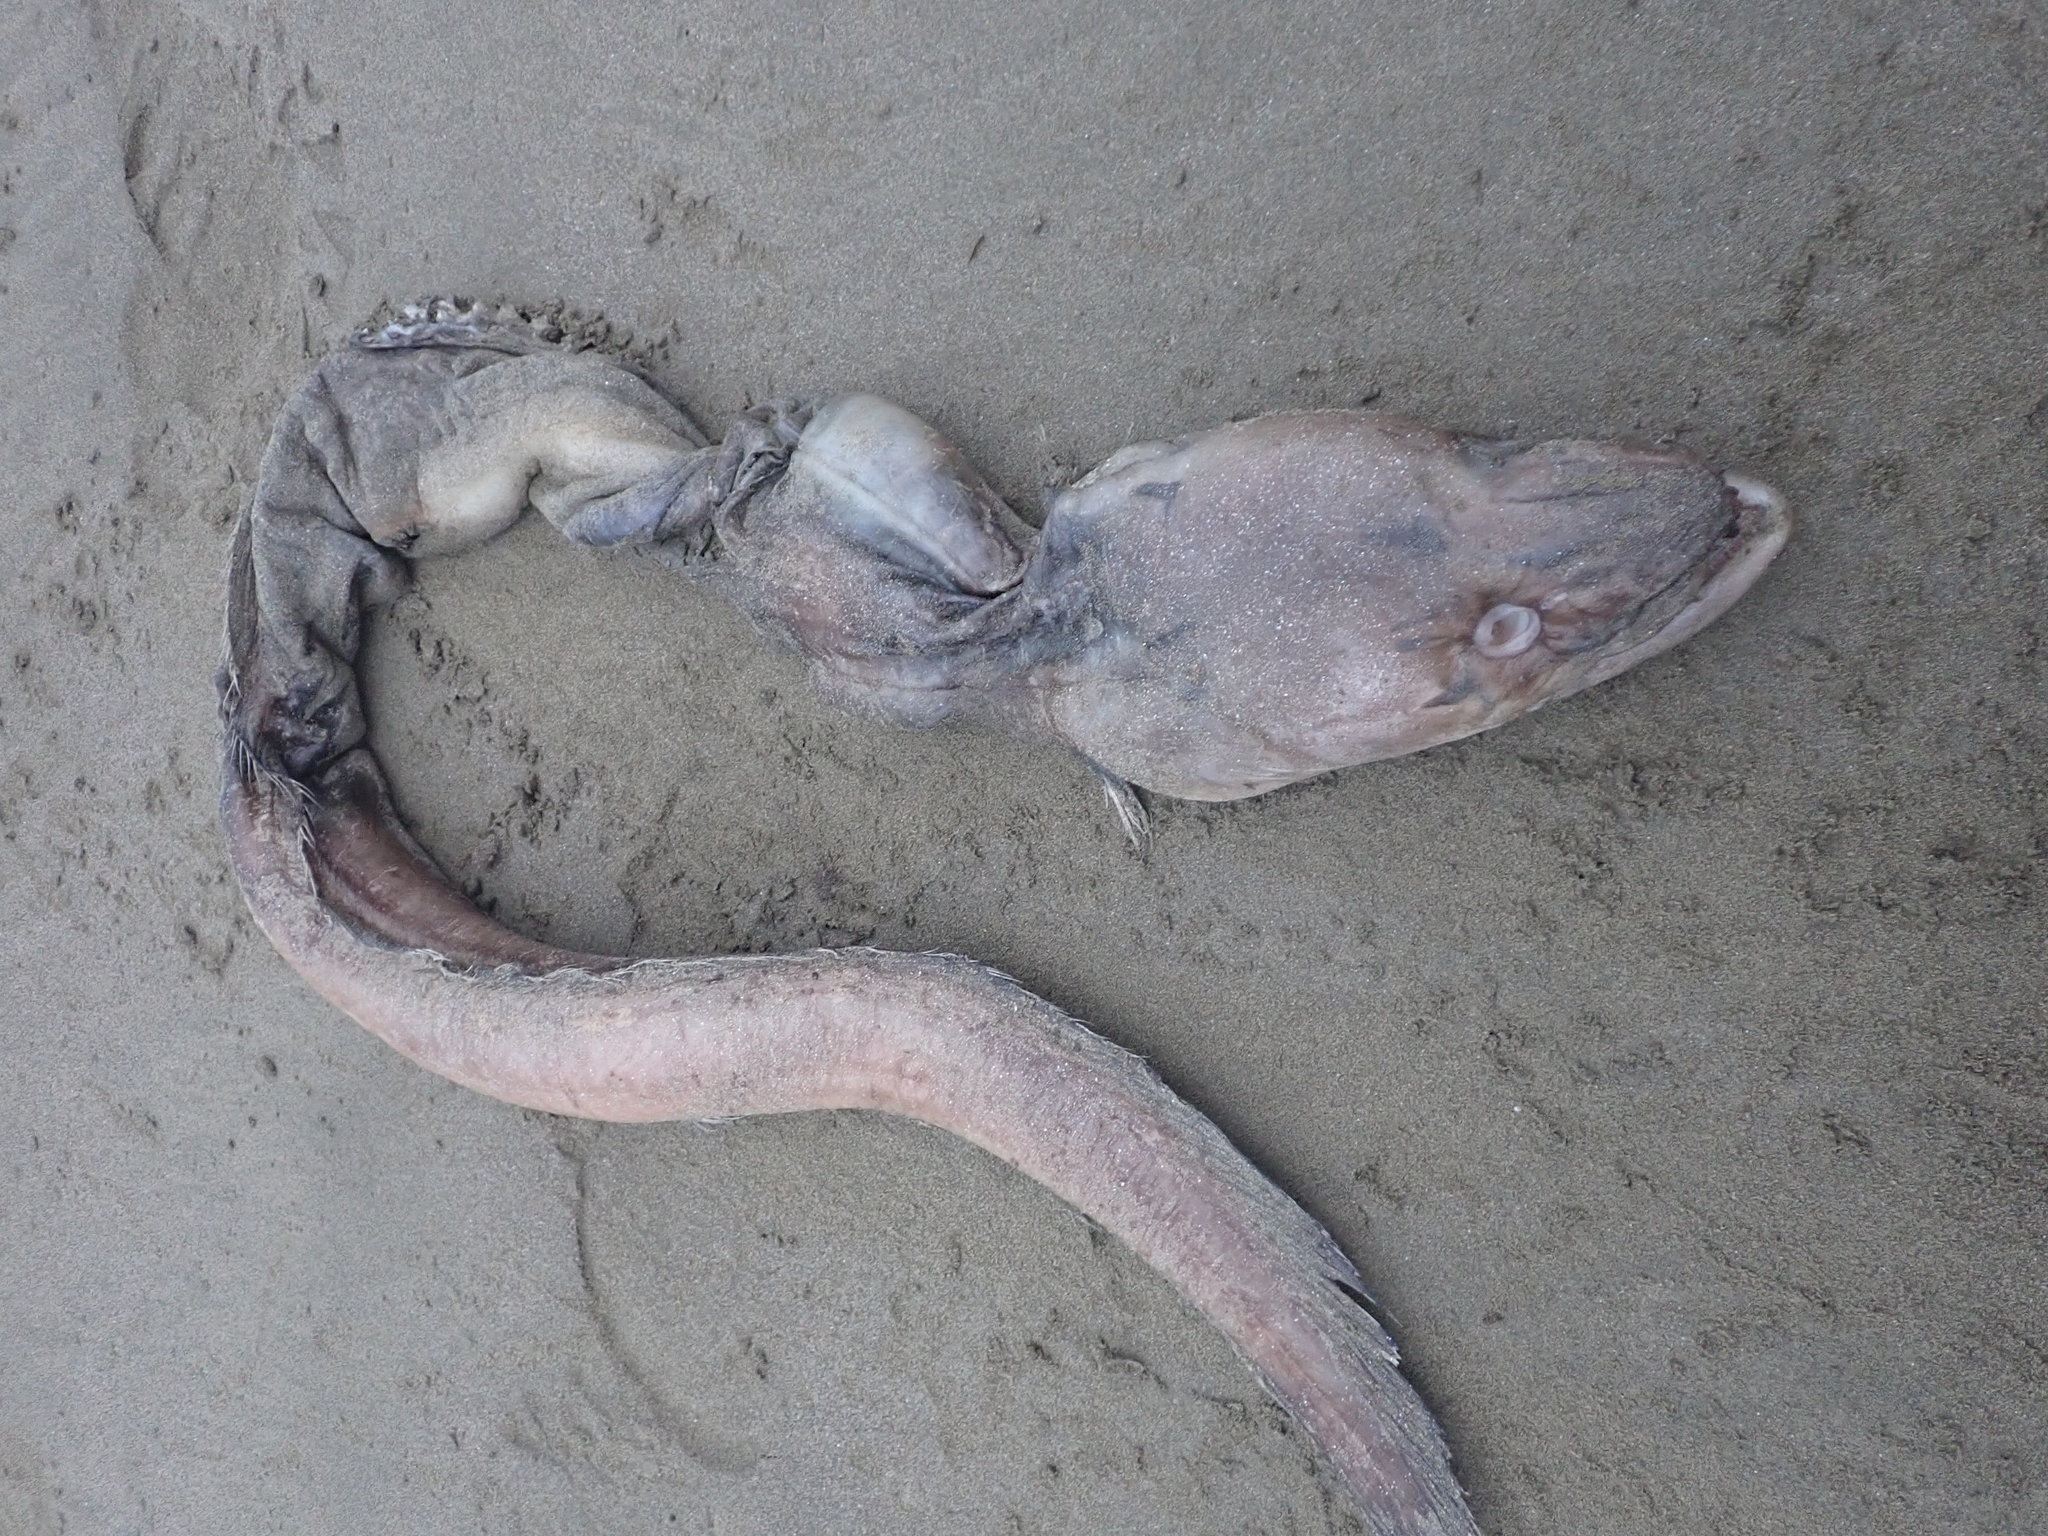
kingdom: Animalia
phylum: Chordata
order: Anguilliformes
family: Congridae
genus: Conger
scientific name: Conger verreauxi
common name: Conger eel
